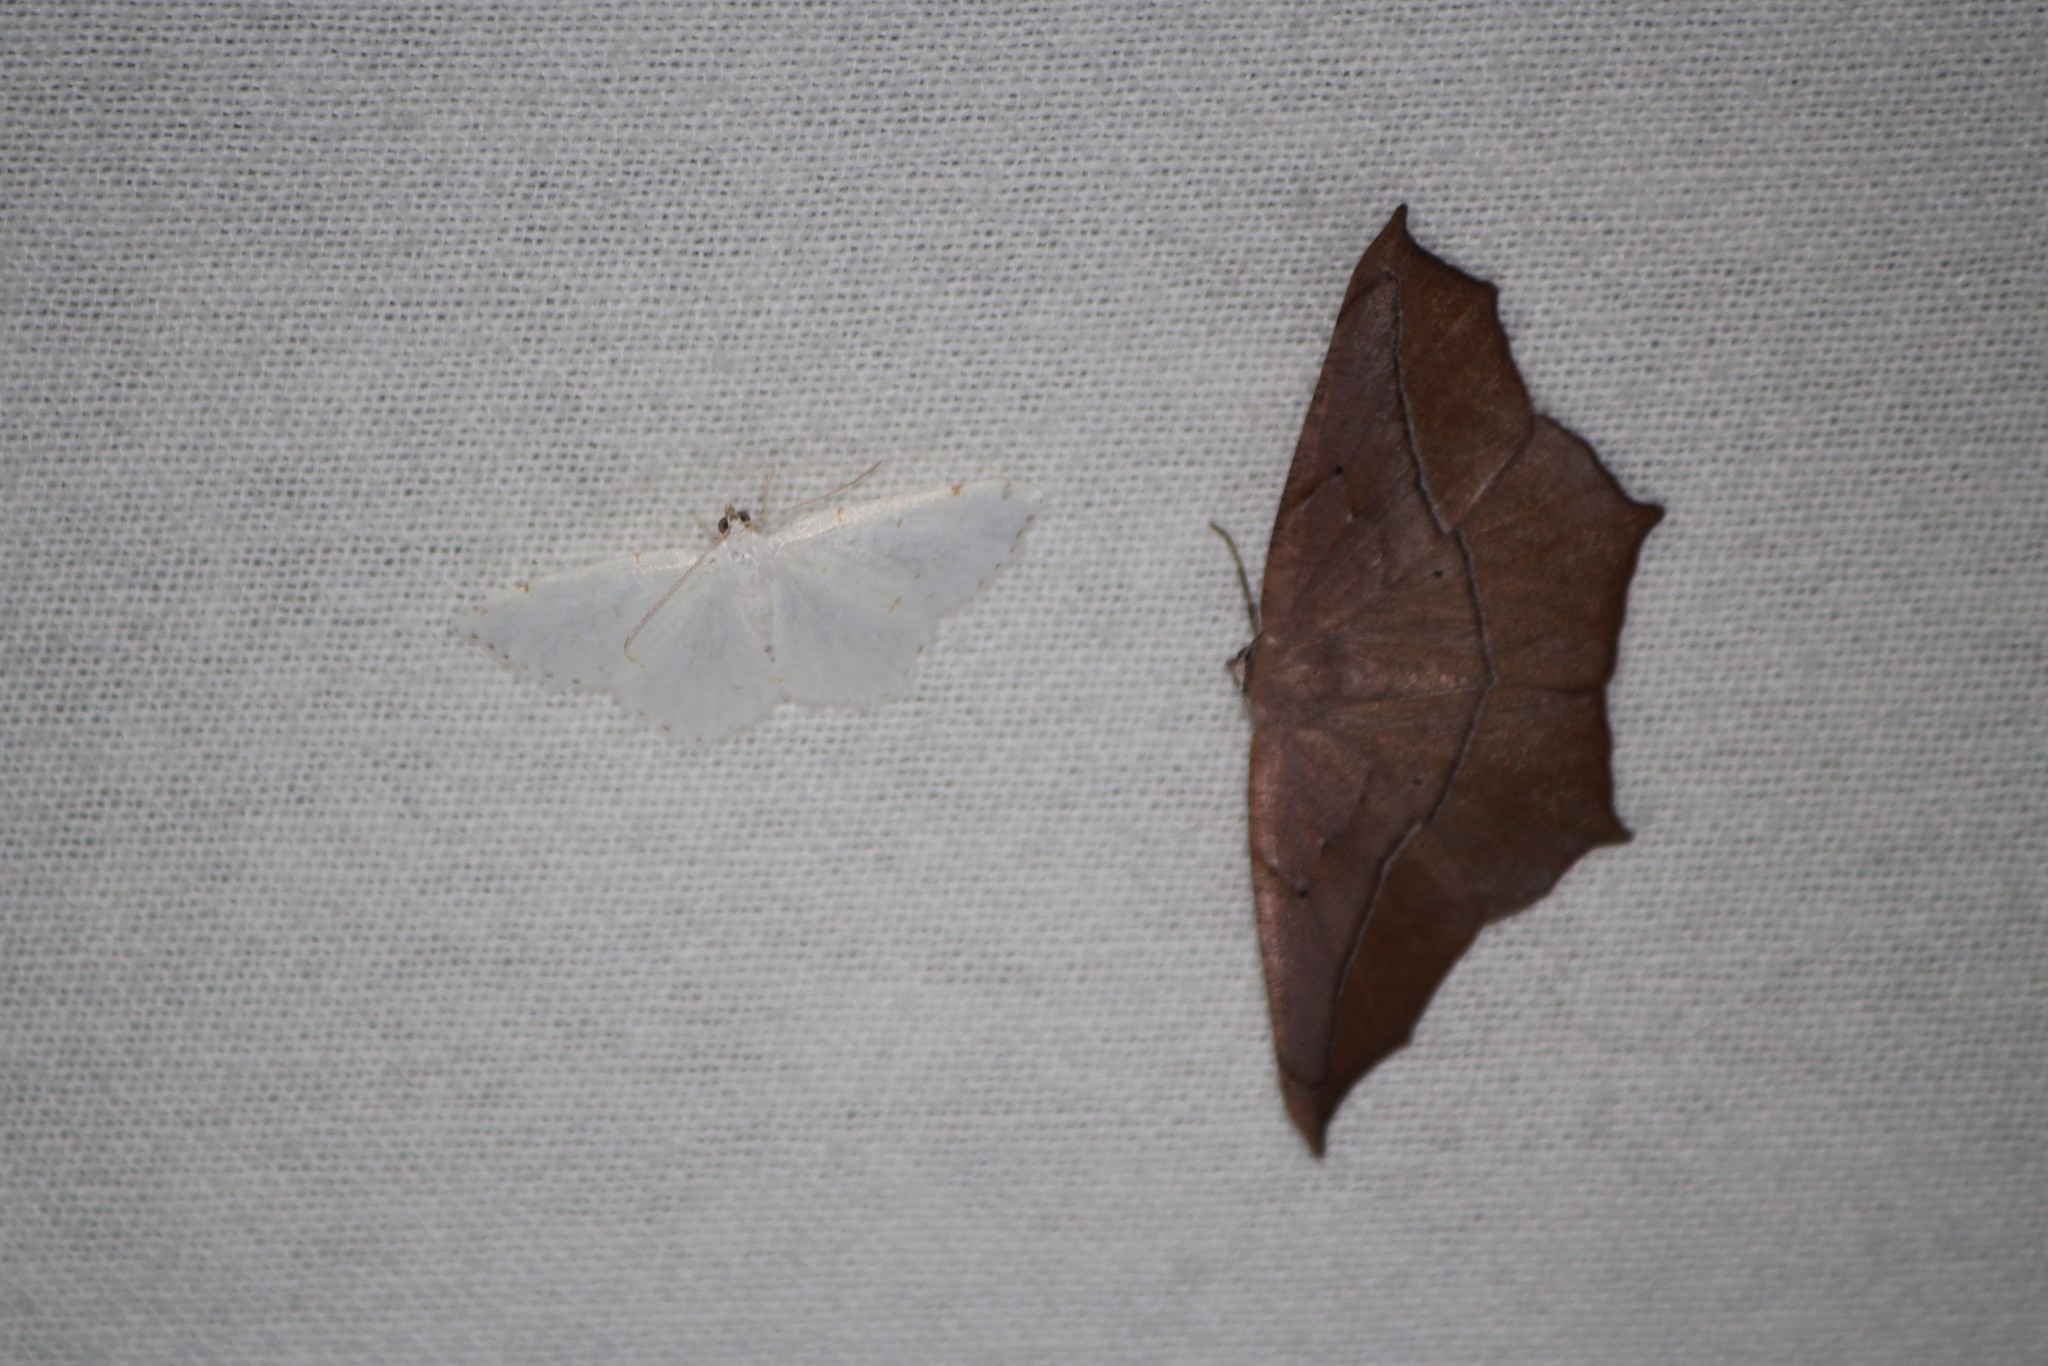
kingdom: Animalia
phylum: Arthropoda
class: Insecta
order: Lepidoptera
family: Geometridae
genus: Prochoerodes
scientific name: Prochoerodes lineola
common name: Large maple spanworm
